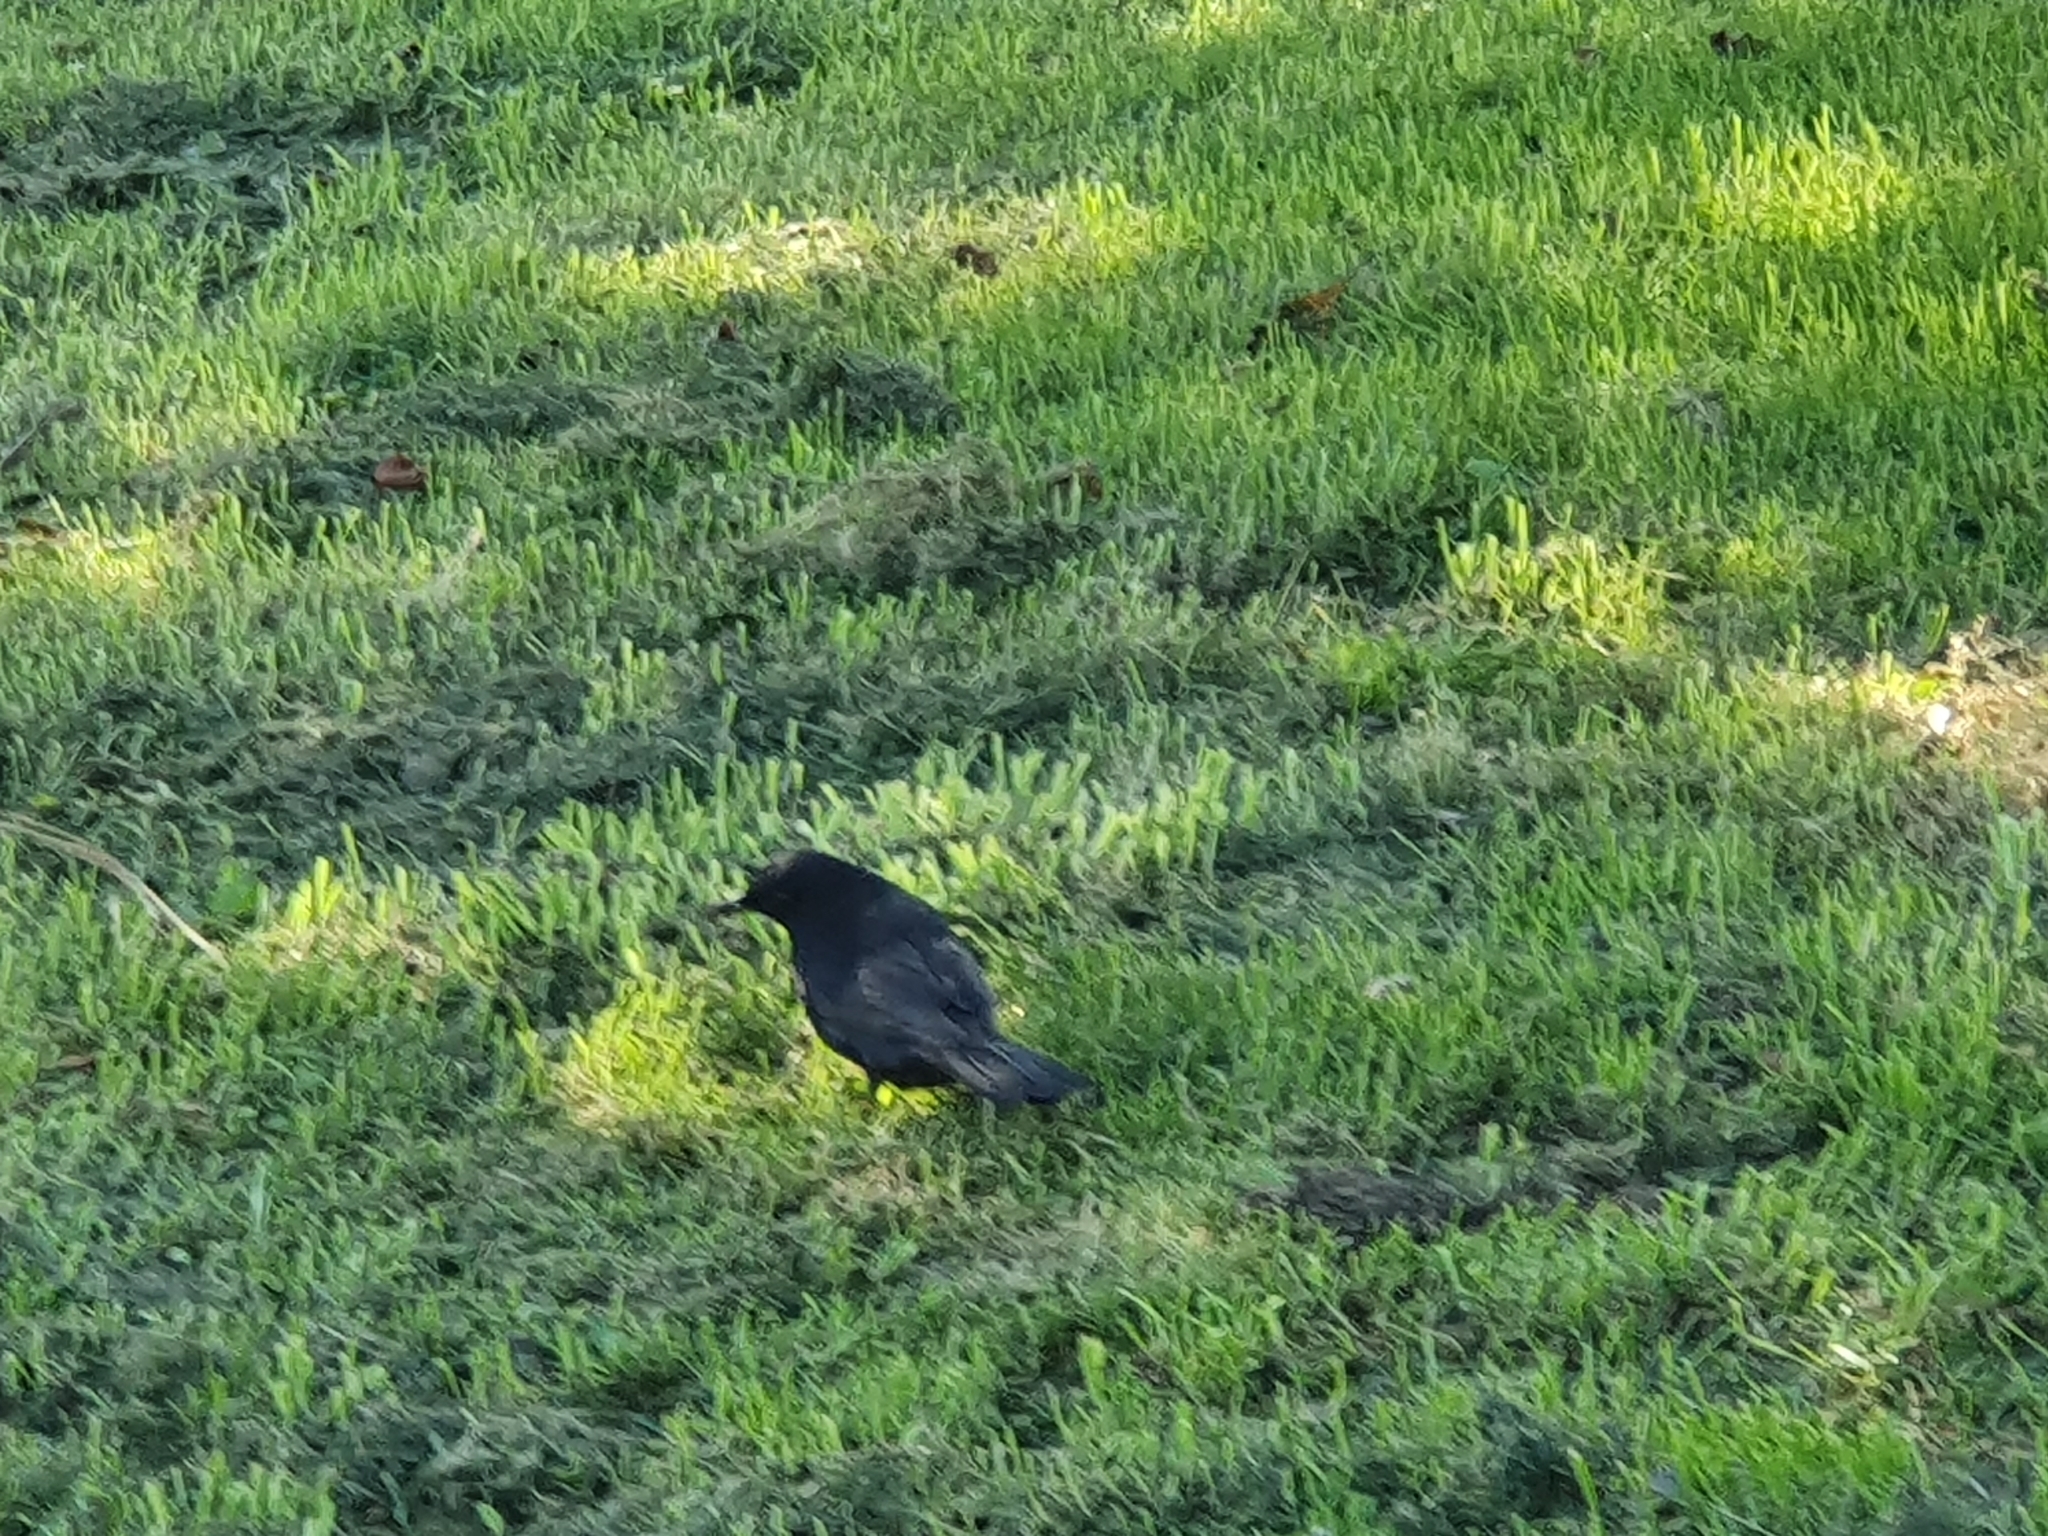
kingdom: Animalia
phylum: Chordata
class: Aves
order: Passeriformes
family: Turdidae
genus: Turdus
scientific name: Turdus merula
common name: Common blackbird
